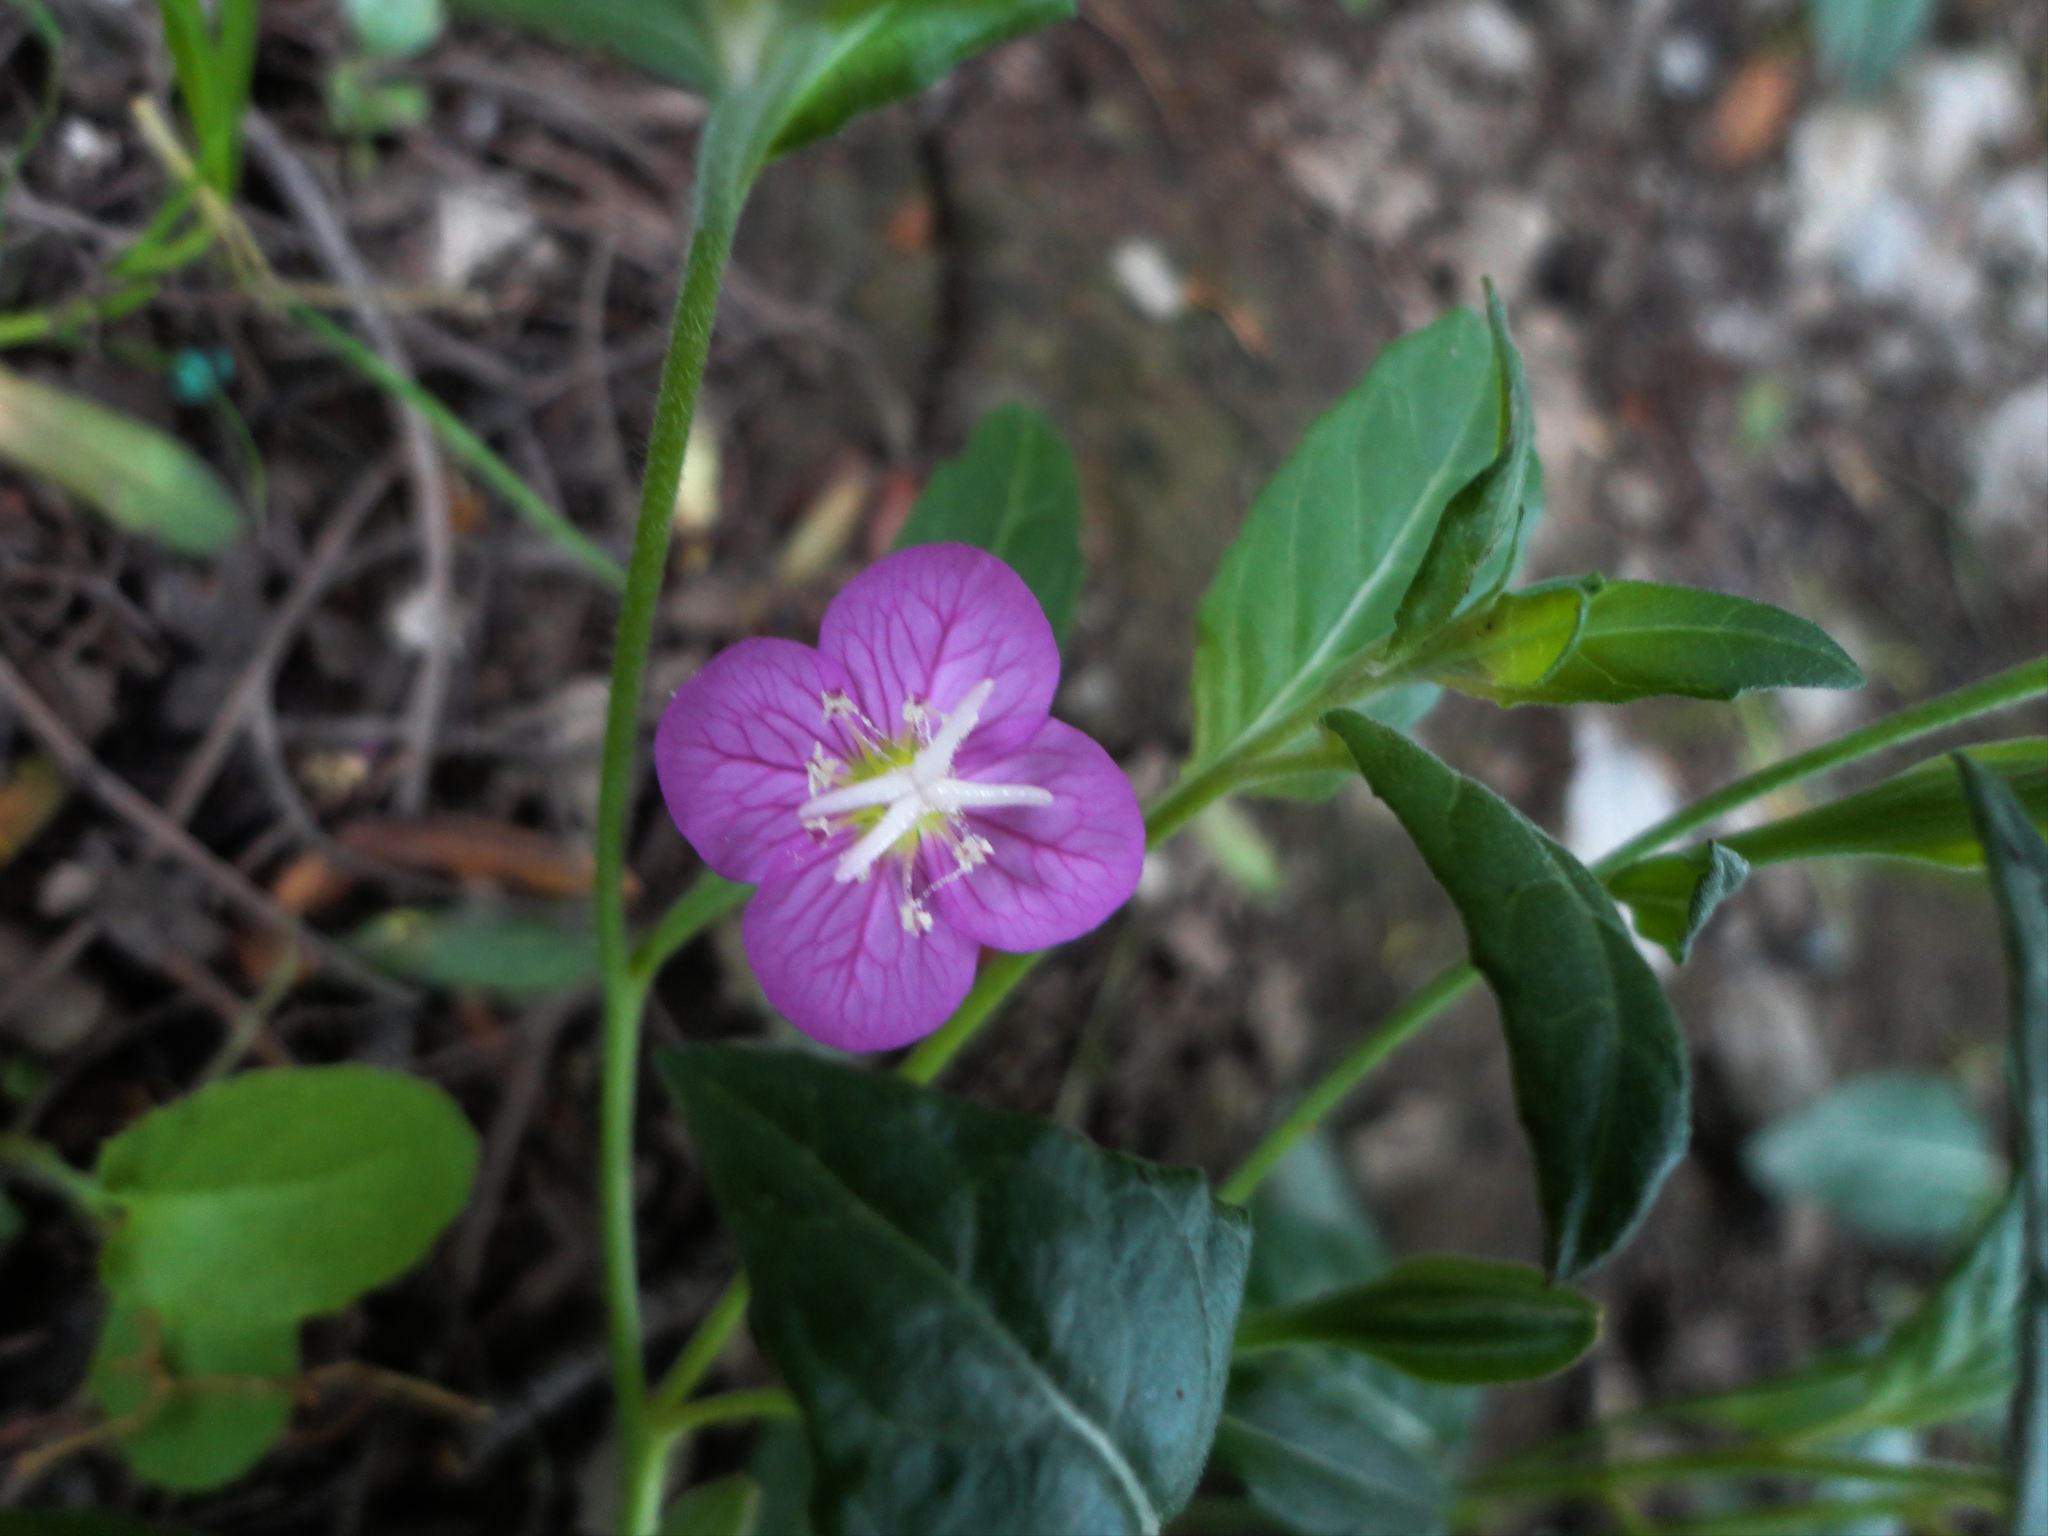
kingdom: Plantae
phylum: Tracheophyta
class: Magnoliopsida
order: Myrtales
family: Onagraceae
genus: Oenothera
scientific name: Oenothera rosea
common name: Rosy evening-primrose
